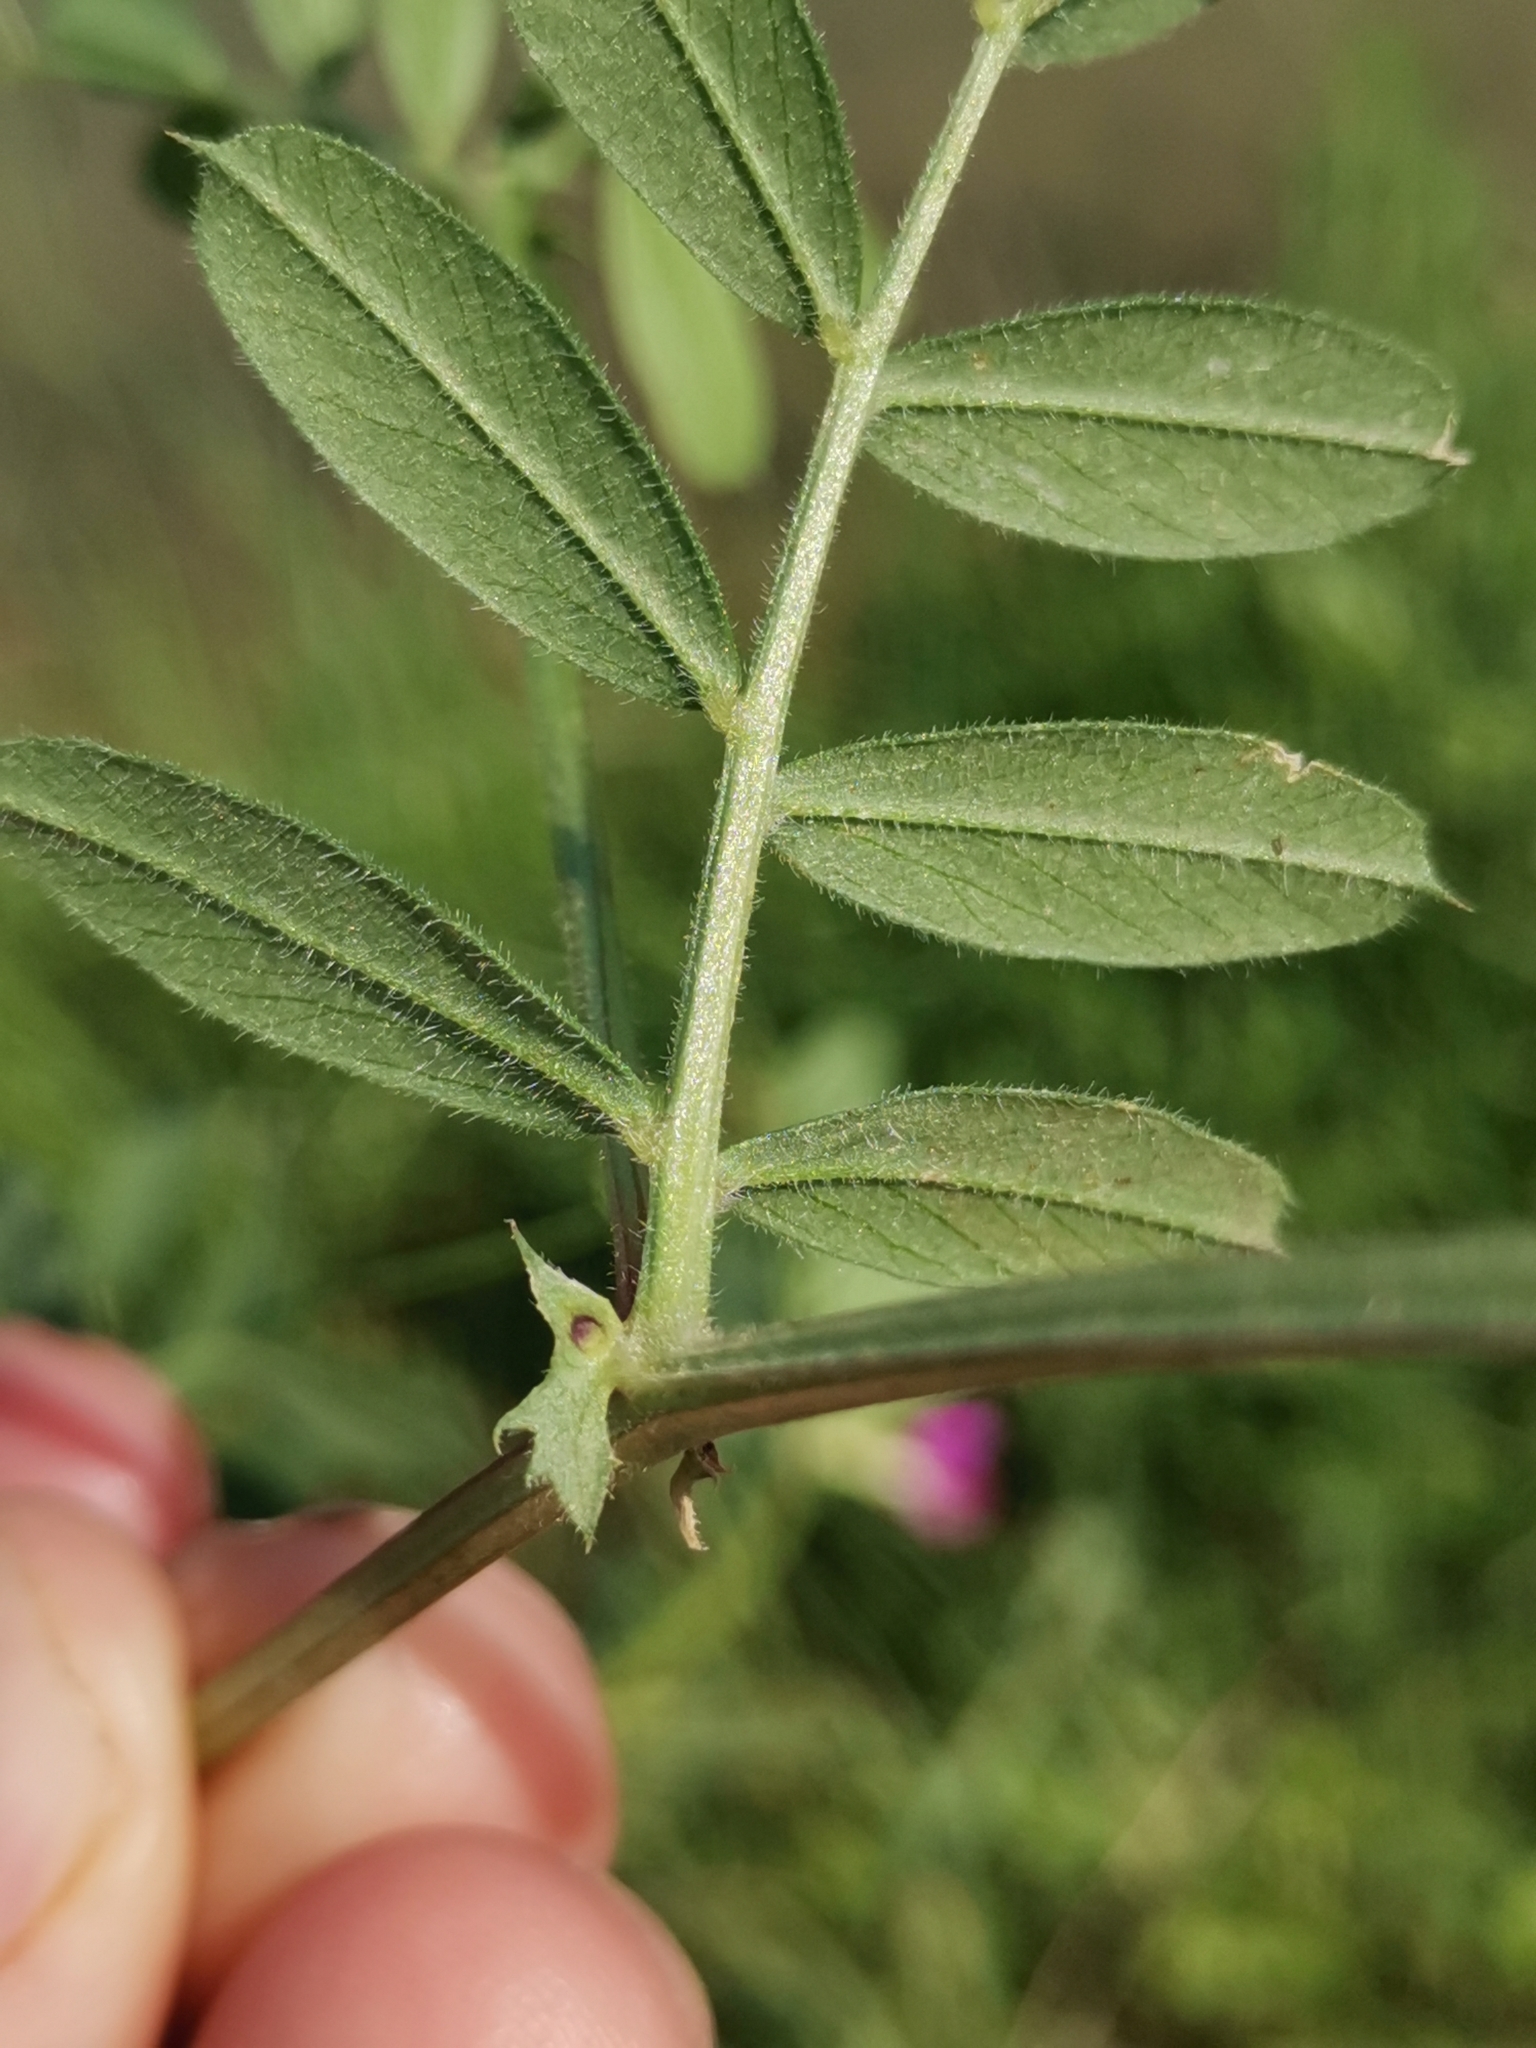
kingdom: Plantae
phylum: Tracheophyta
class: Magnoliopsida
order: Fabales
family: Fabaceae
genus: Vicia
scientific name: Vicia sativa
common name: Garden vetch
